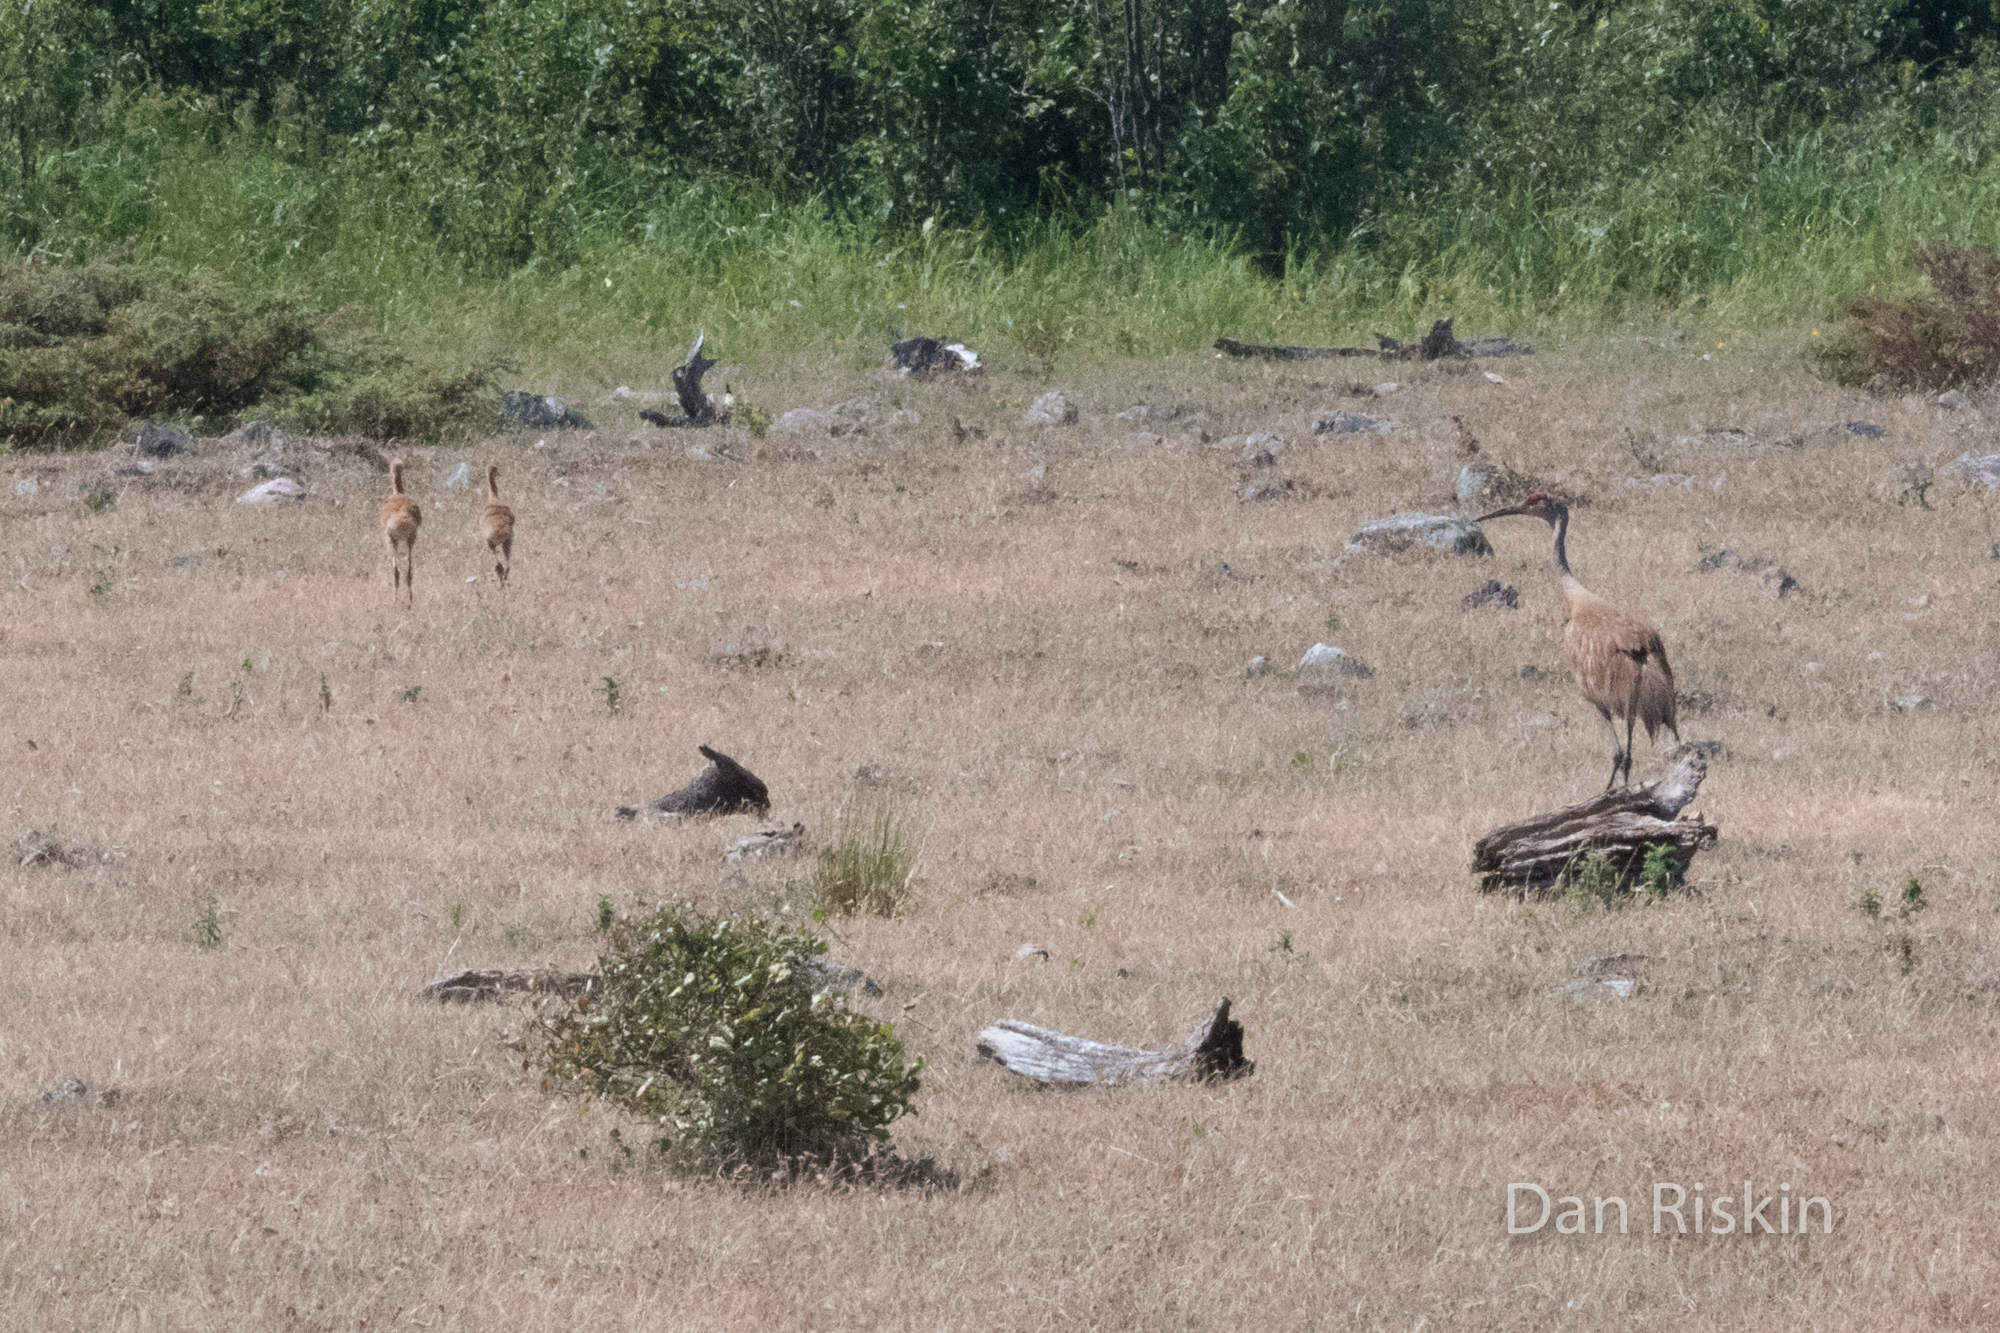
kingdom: Animalia
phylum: Chordata
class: Aves
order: Gruiformes
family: Gruidae
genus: Grus
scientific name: Grus canadensis
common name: Sandhill crane
